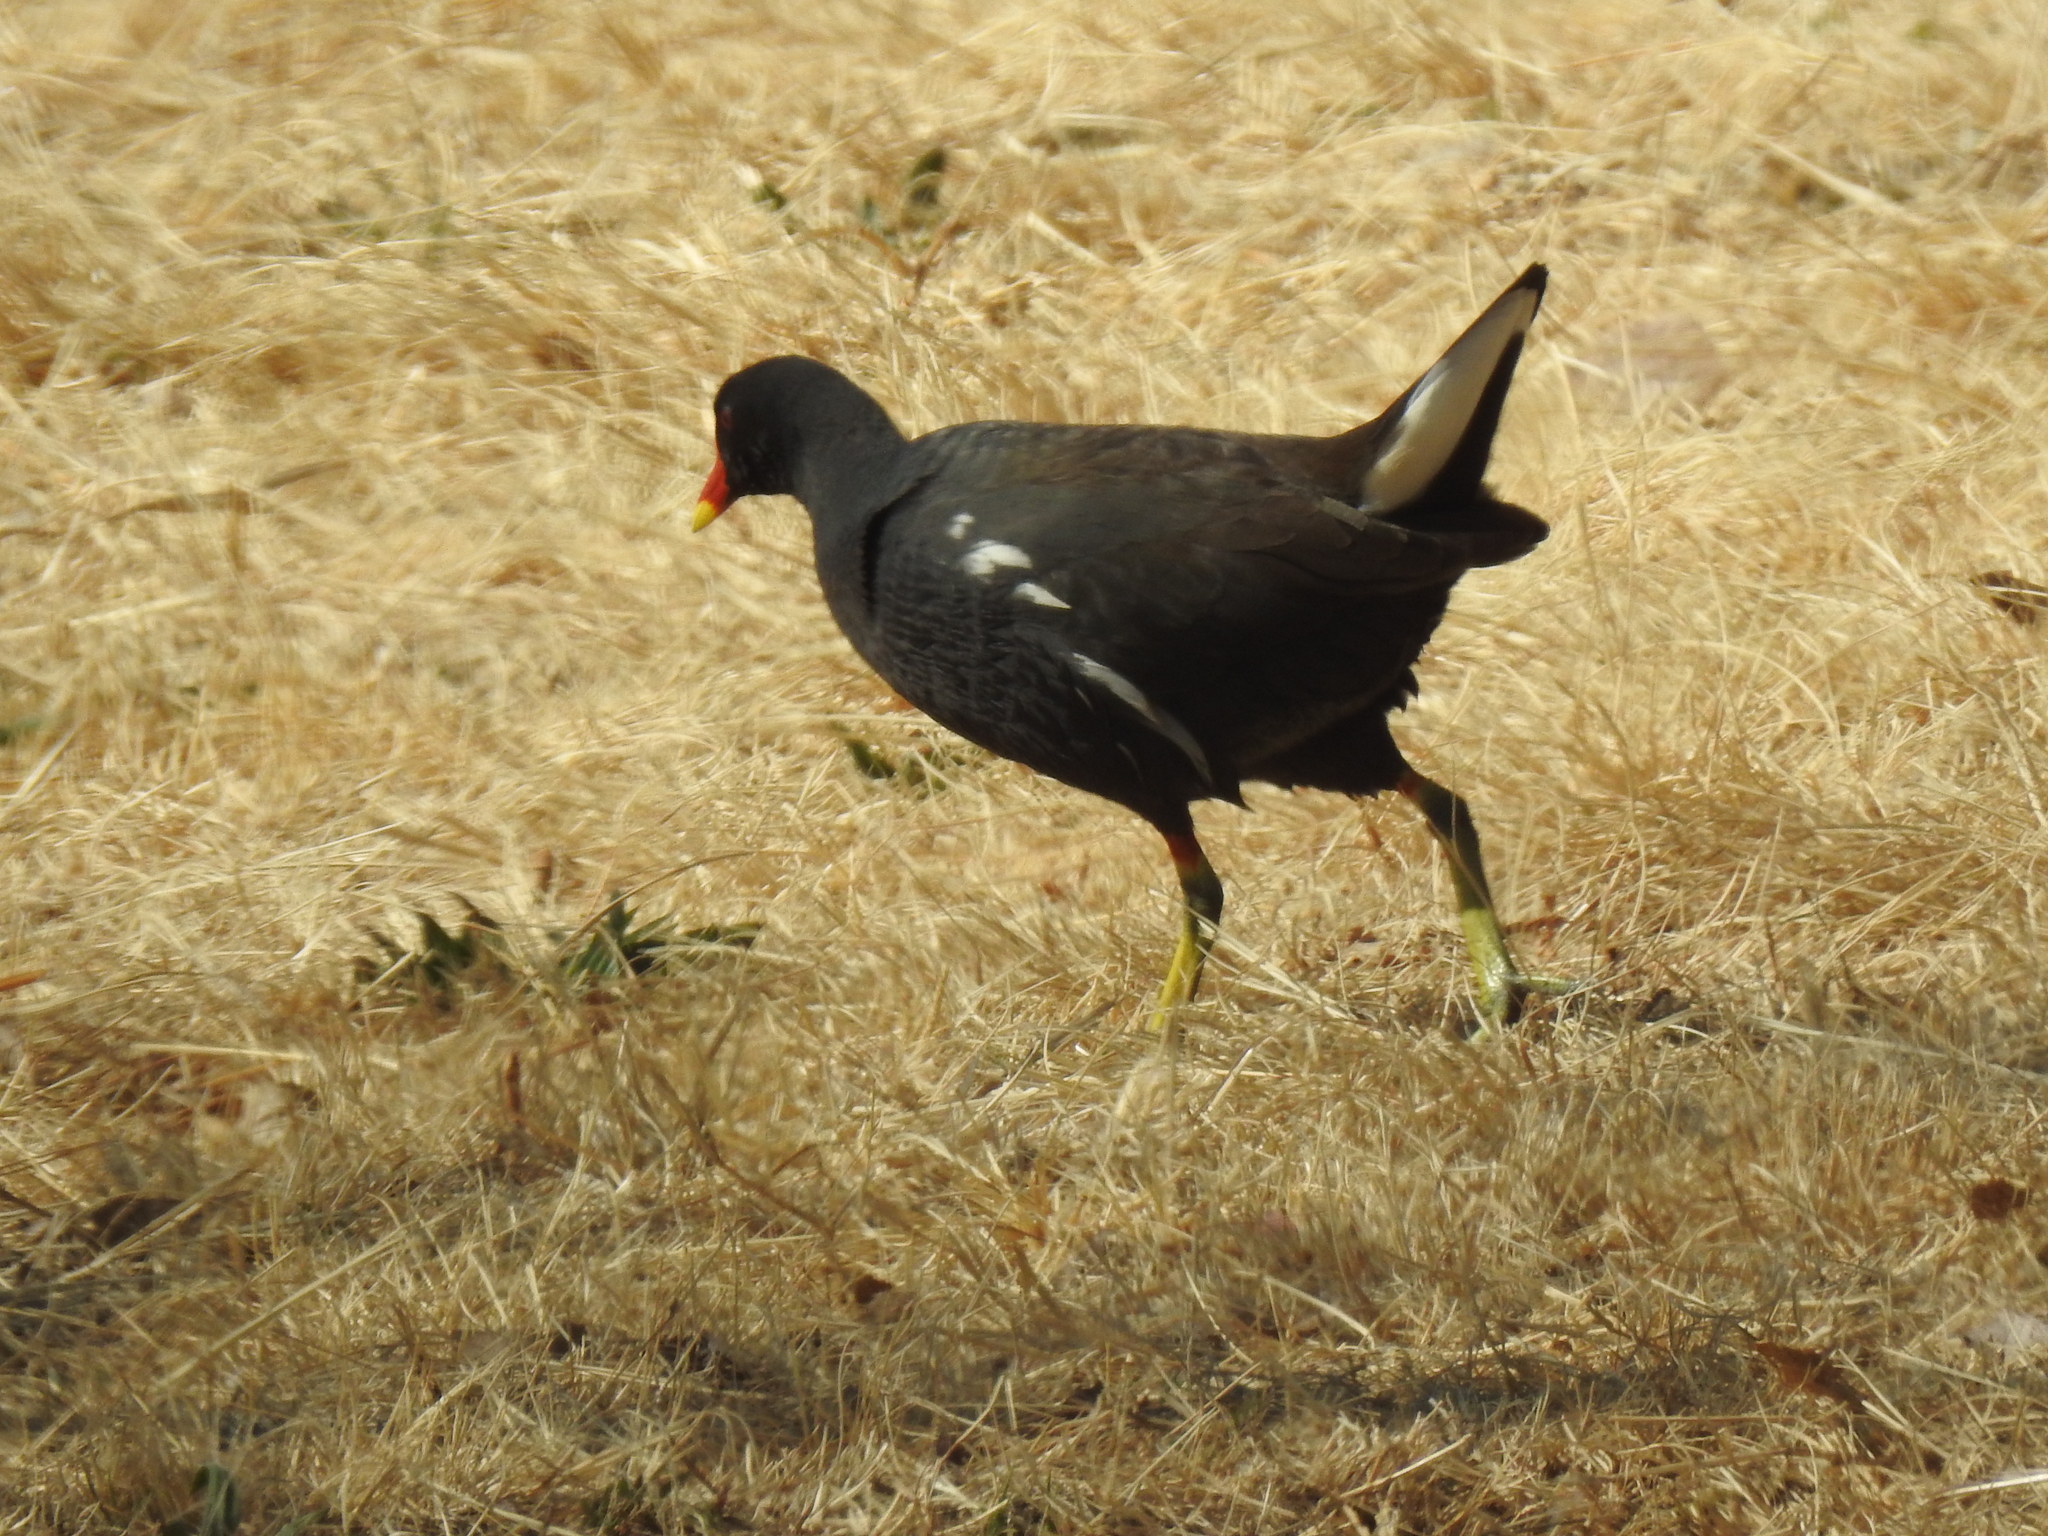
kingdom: Animalia
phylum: Chordata
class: Aves
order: Gruiformes
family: Rallidae
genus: Gallinula
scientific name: Gallinula chloropus
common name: Common moorhen
